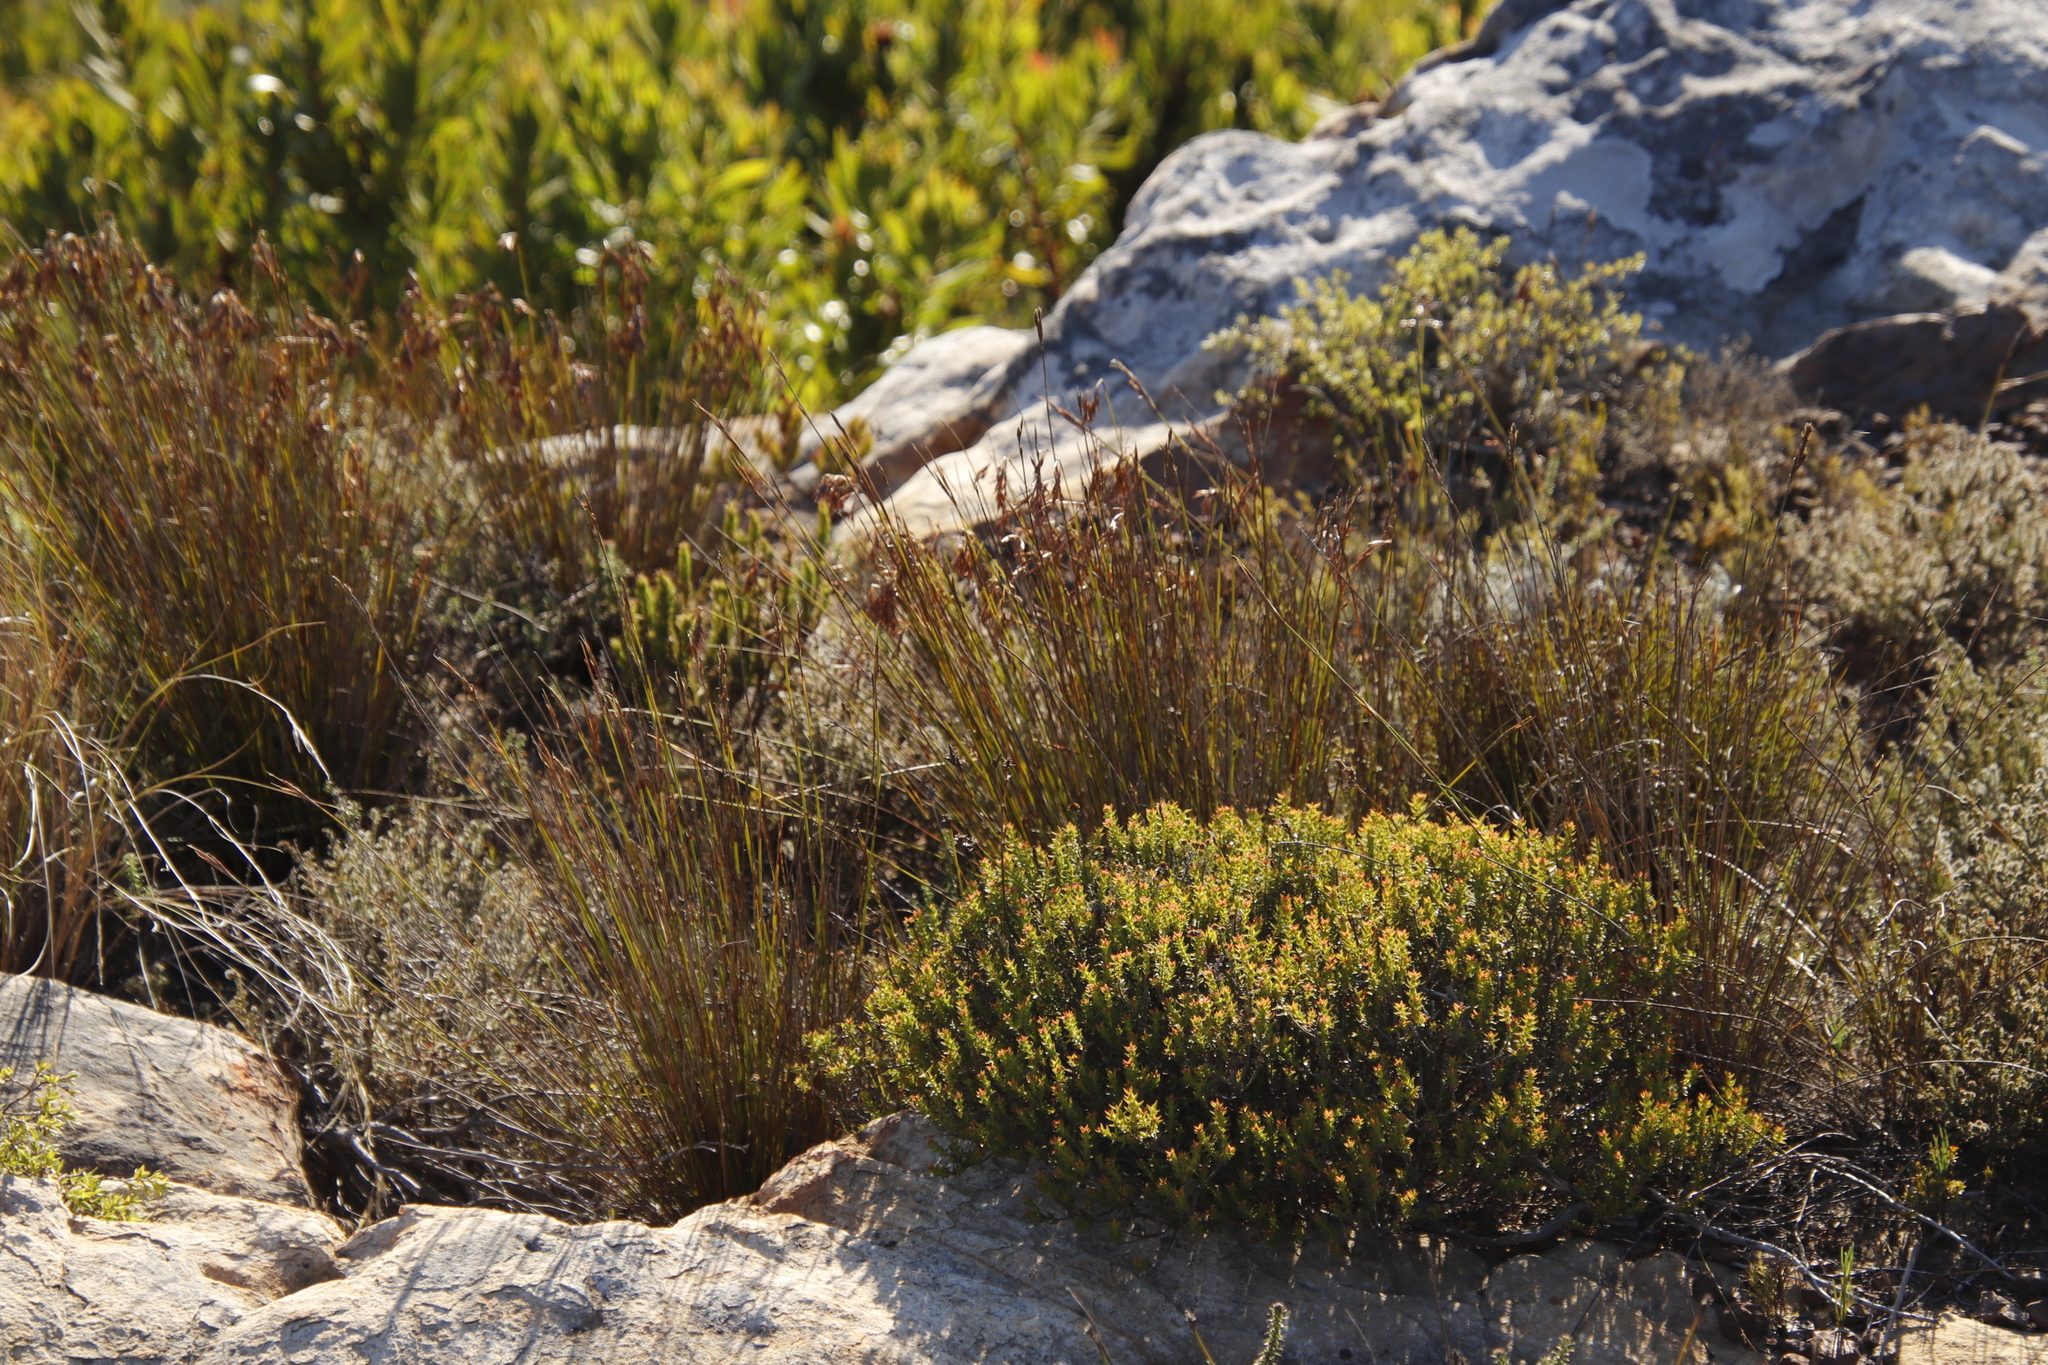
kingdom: Plantae
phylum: Tracheophyta
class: Magnoliopsida
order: Myrtales
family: Penaeaceae
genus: Penaea
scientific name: Penaea mucronata
